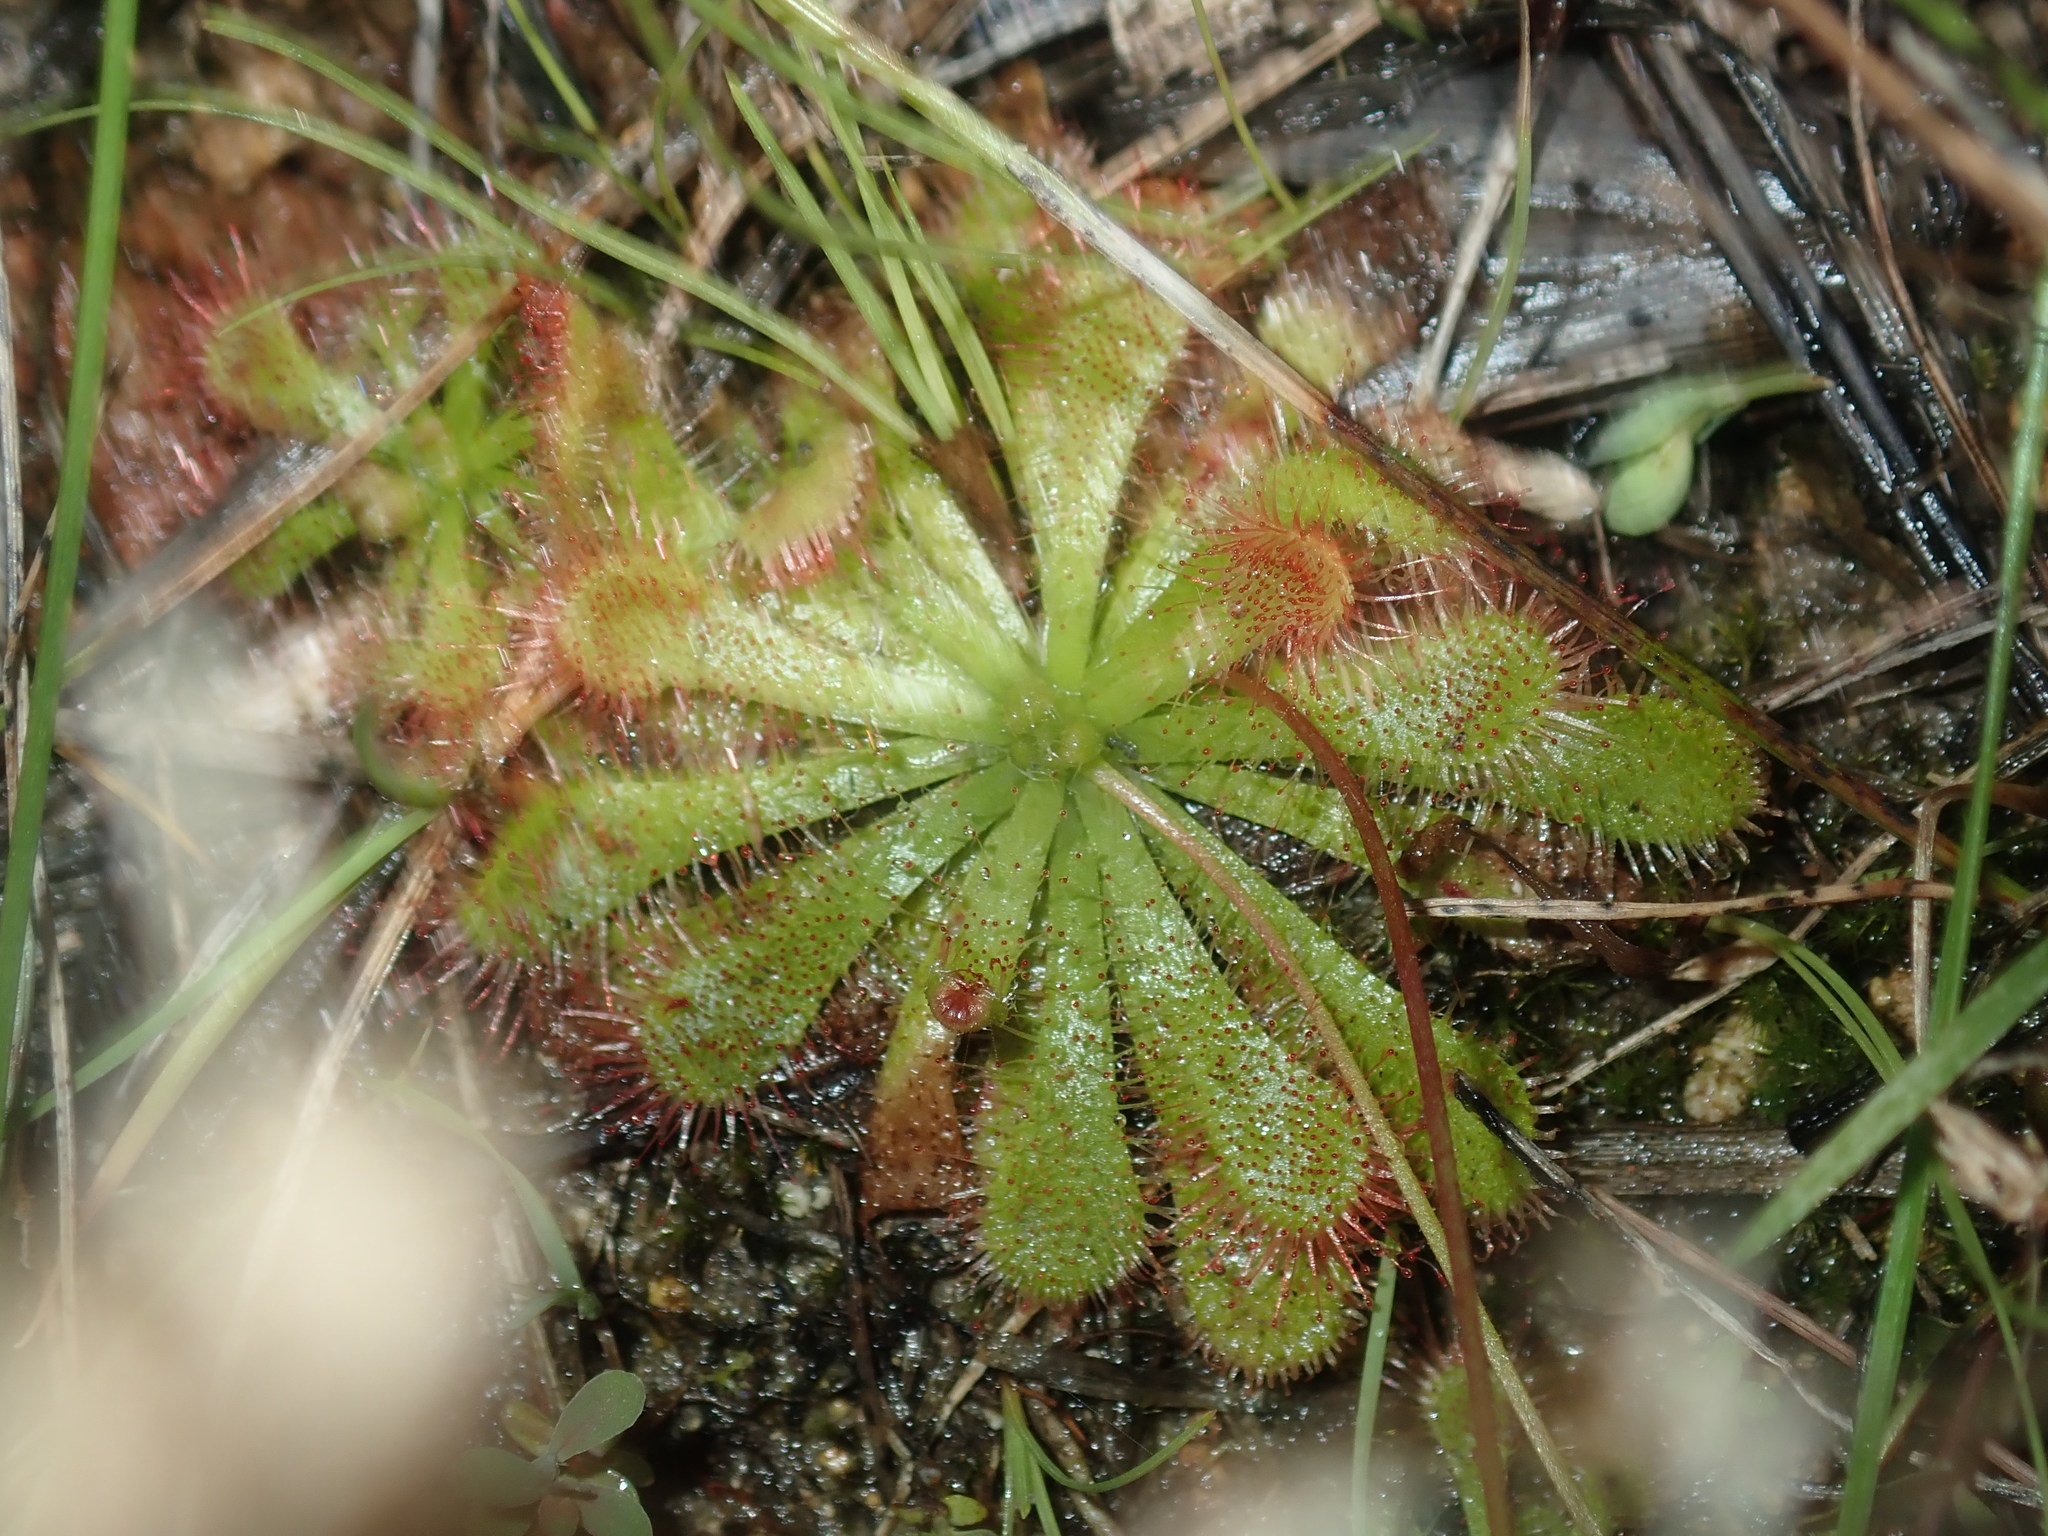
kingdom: Plantae
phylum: Tracheophyta
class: Magnoliopsida
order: Caryophyllales
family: Droseraceae
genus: Drosera
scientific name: Drosera spatulata
